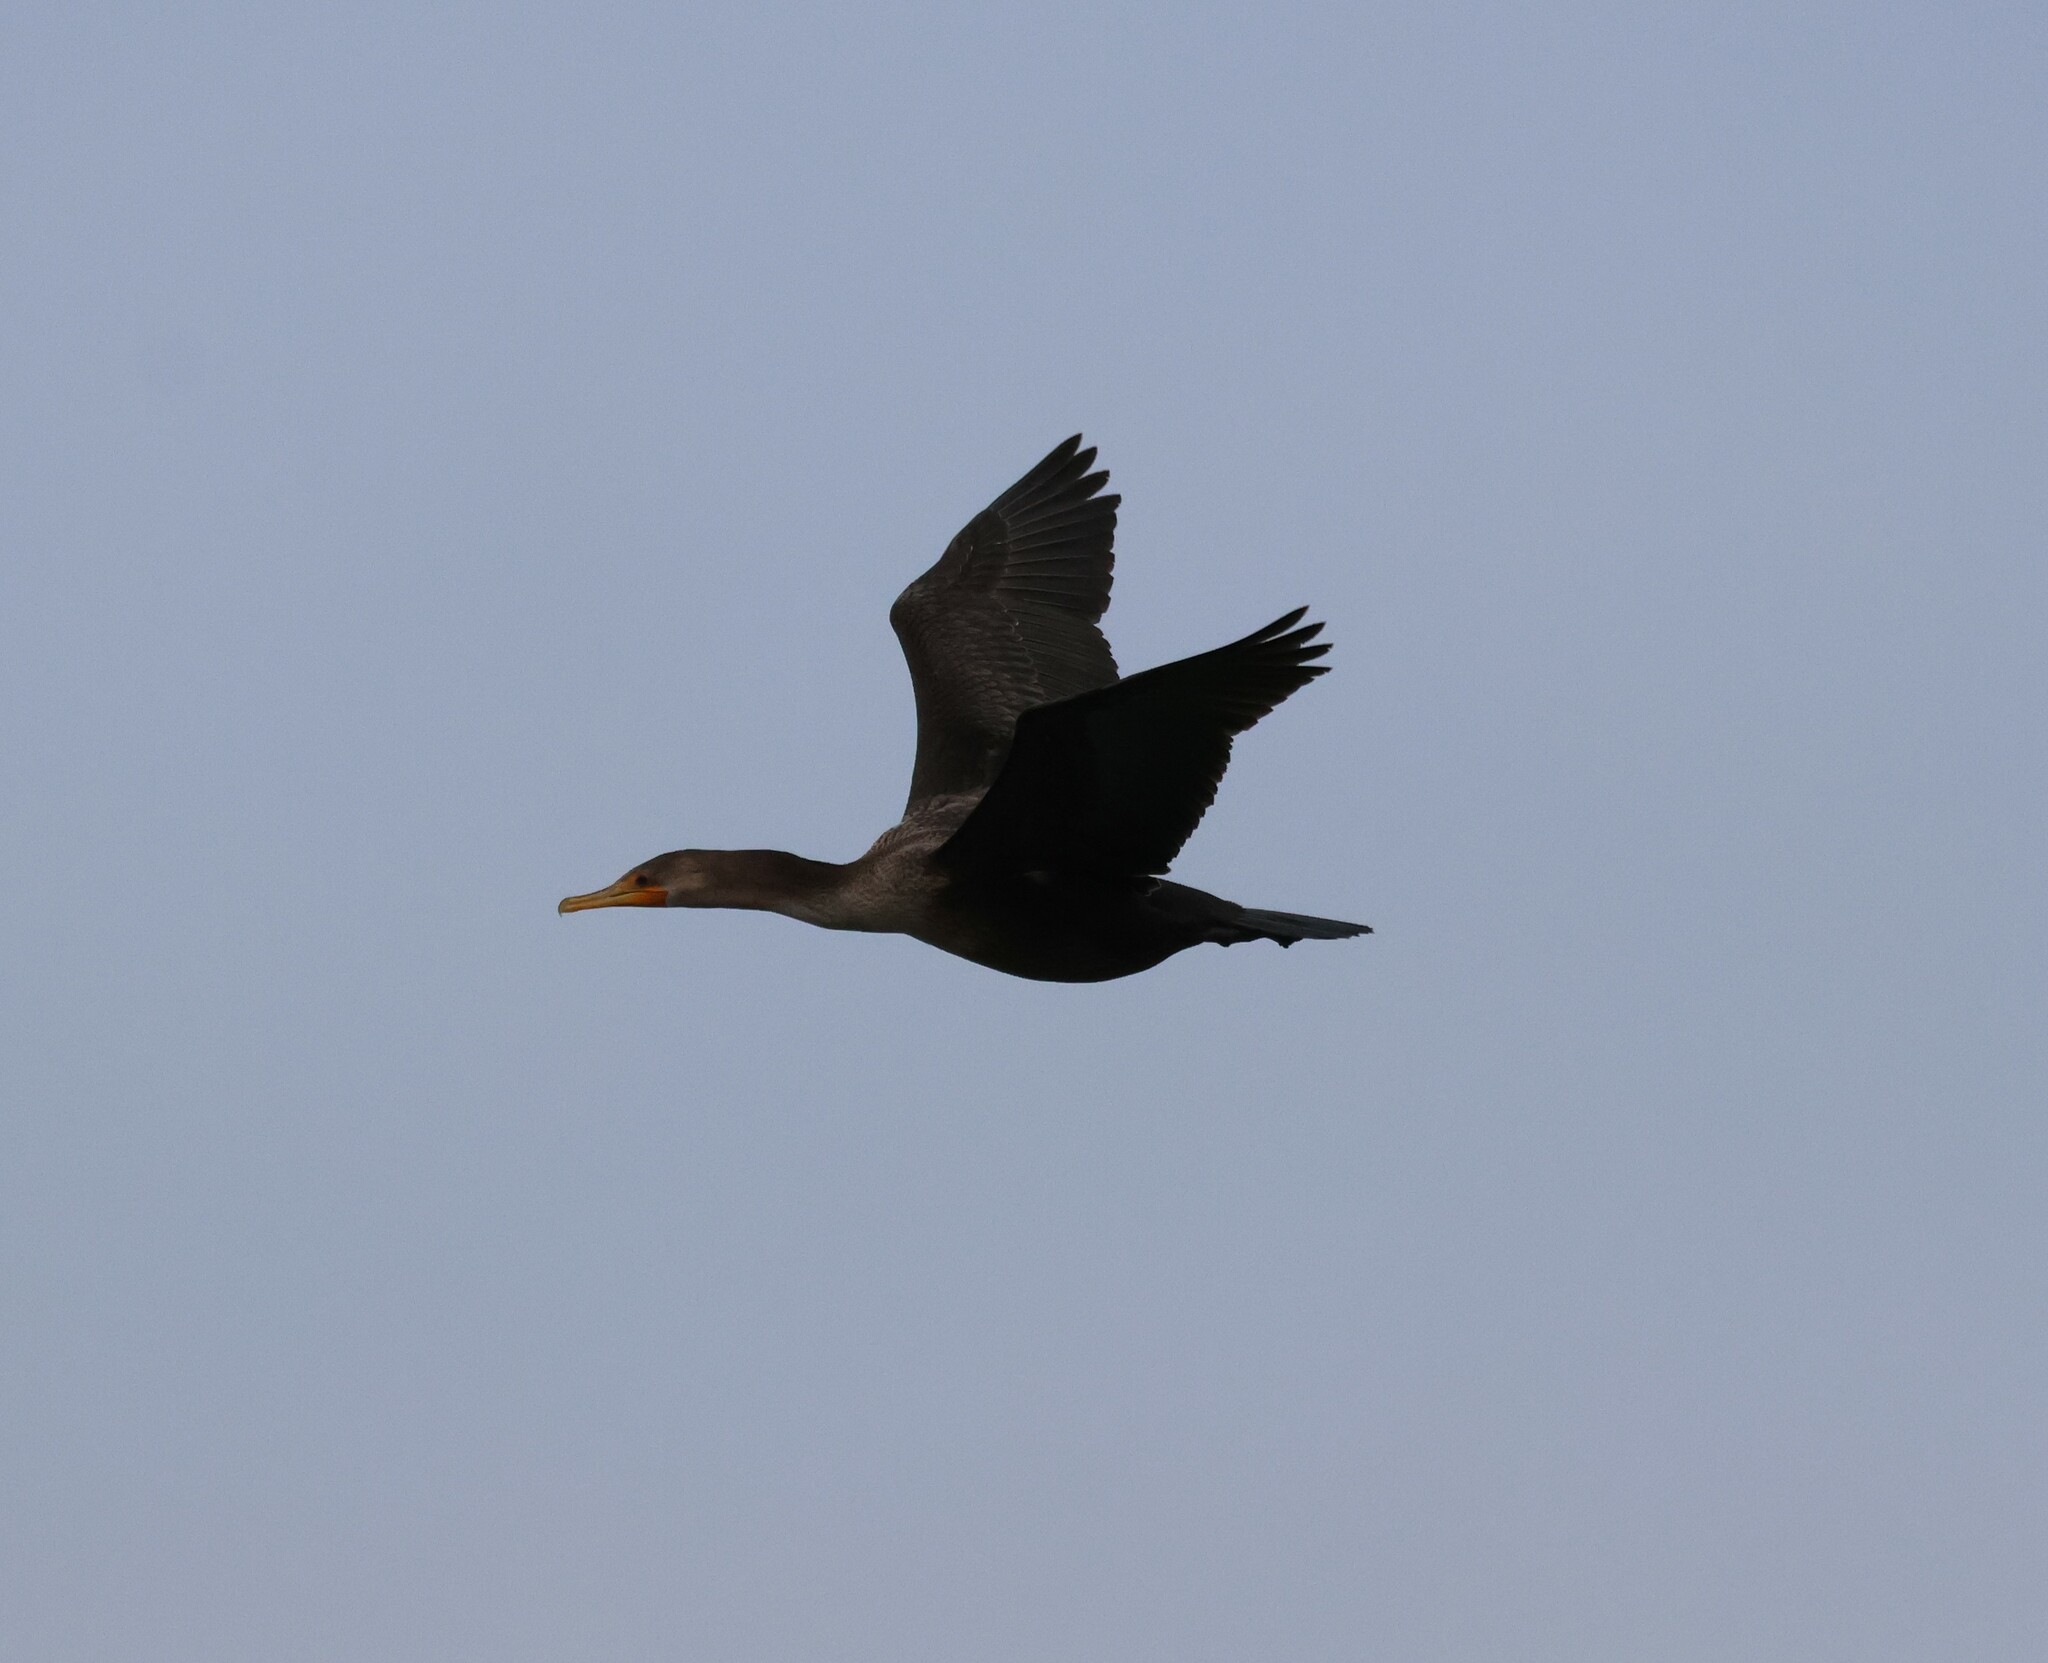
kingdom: Animalia
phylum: Chordata
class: Aves
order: Suliformes
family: Phalacrocoracidae
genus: Phalacrocorax
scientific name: Phalacrocorax auritus
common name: Double-crested cormorant
